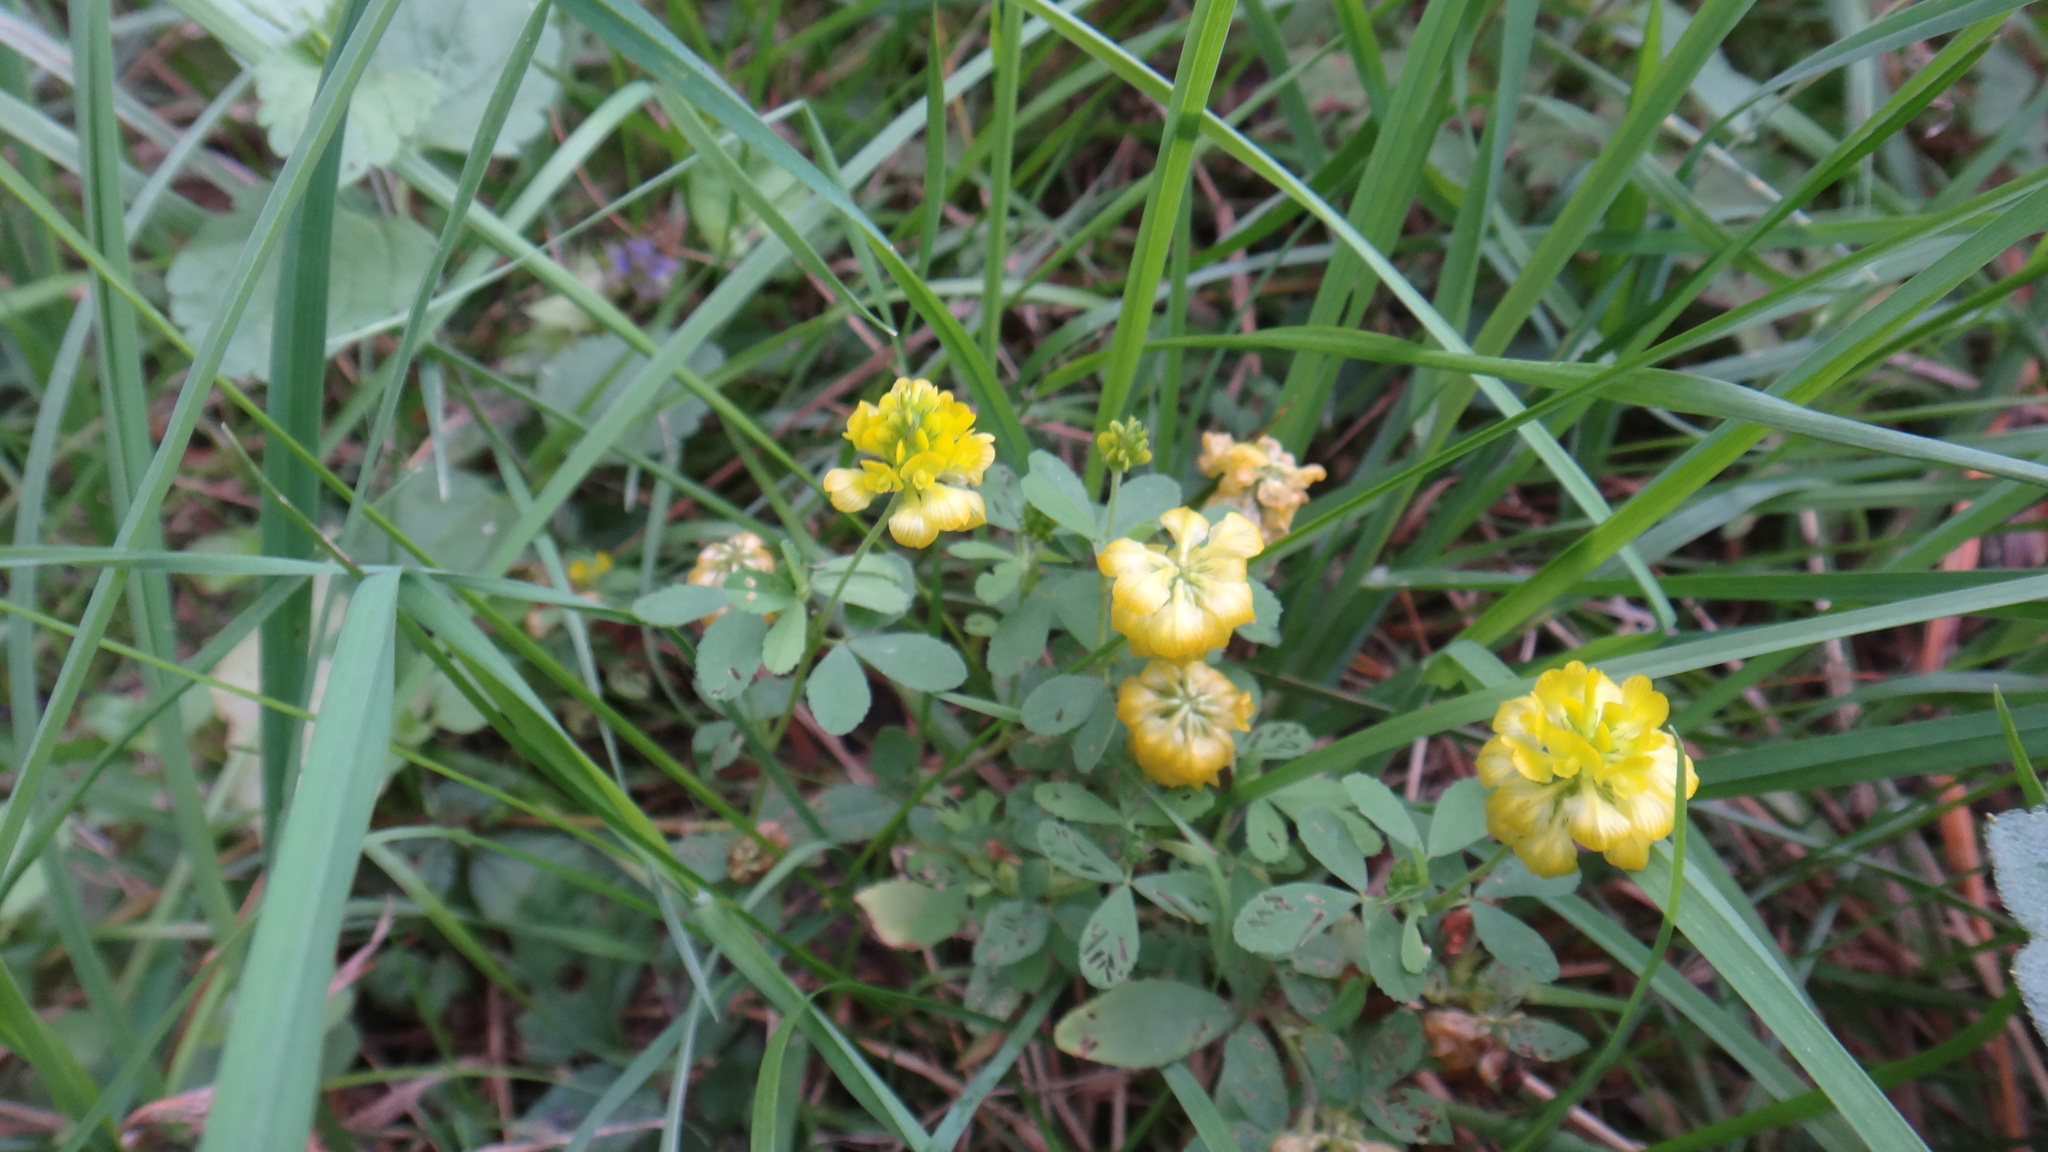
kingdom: Plantae
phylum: Tracheophyta
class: Magnoliopsida
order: Fabales
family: Fabaceae
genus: Trifolium
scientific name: Trifolium aureum
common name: Golden clover
